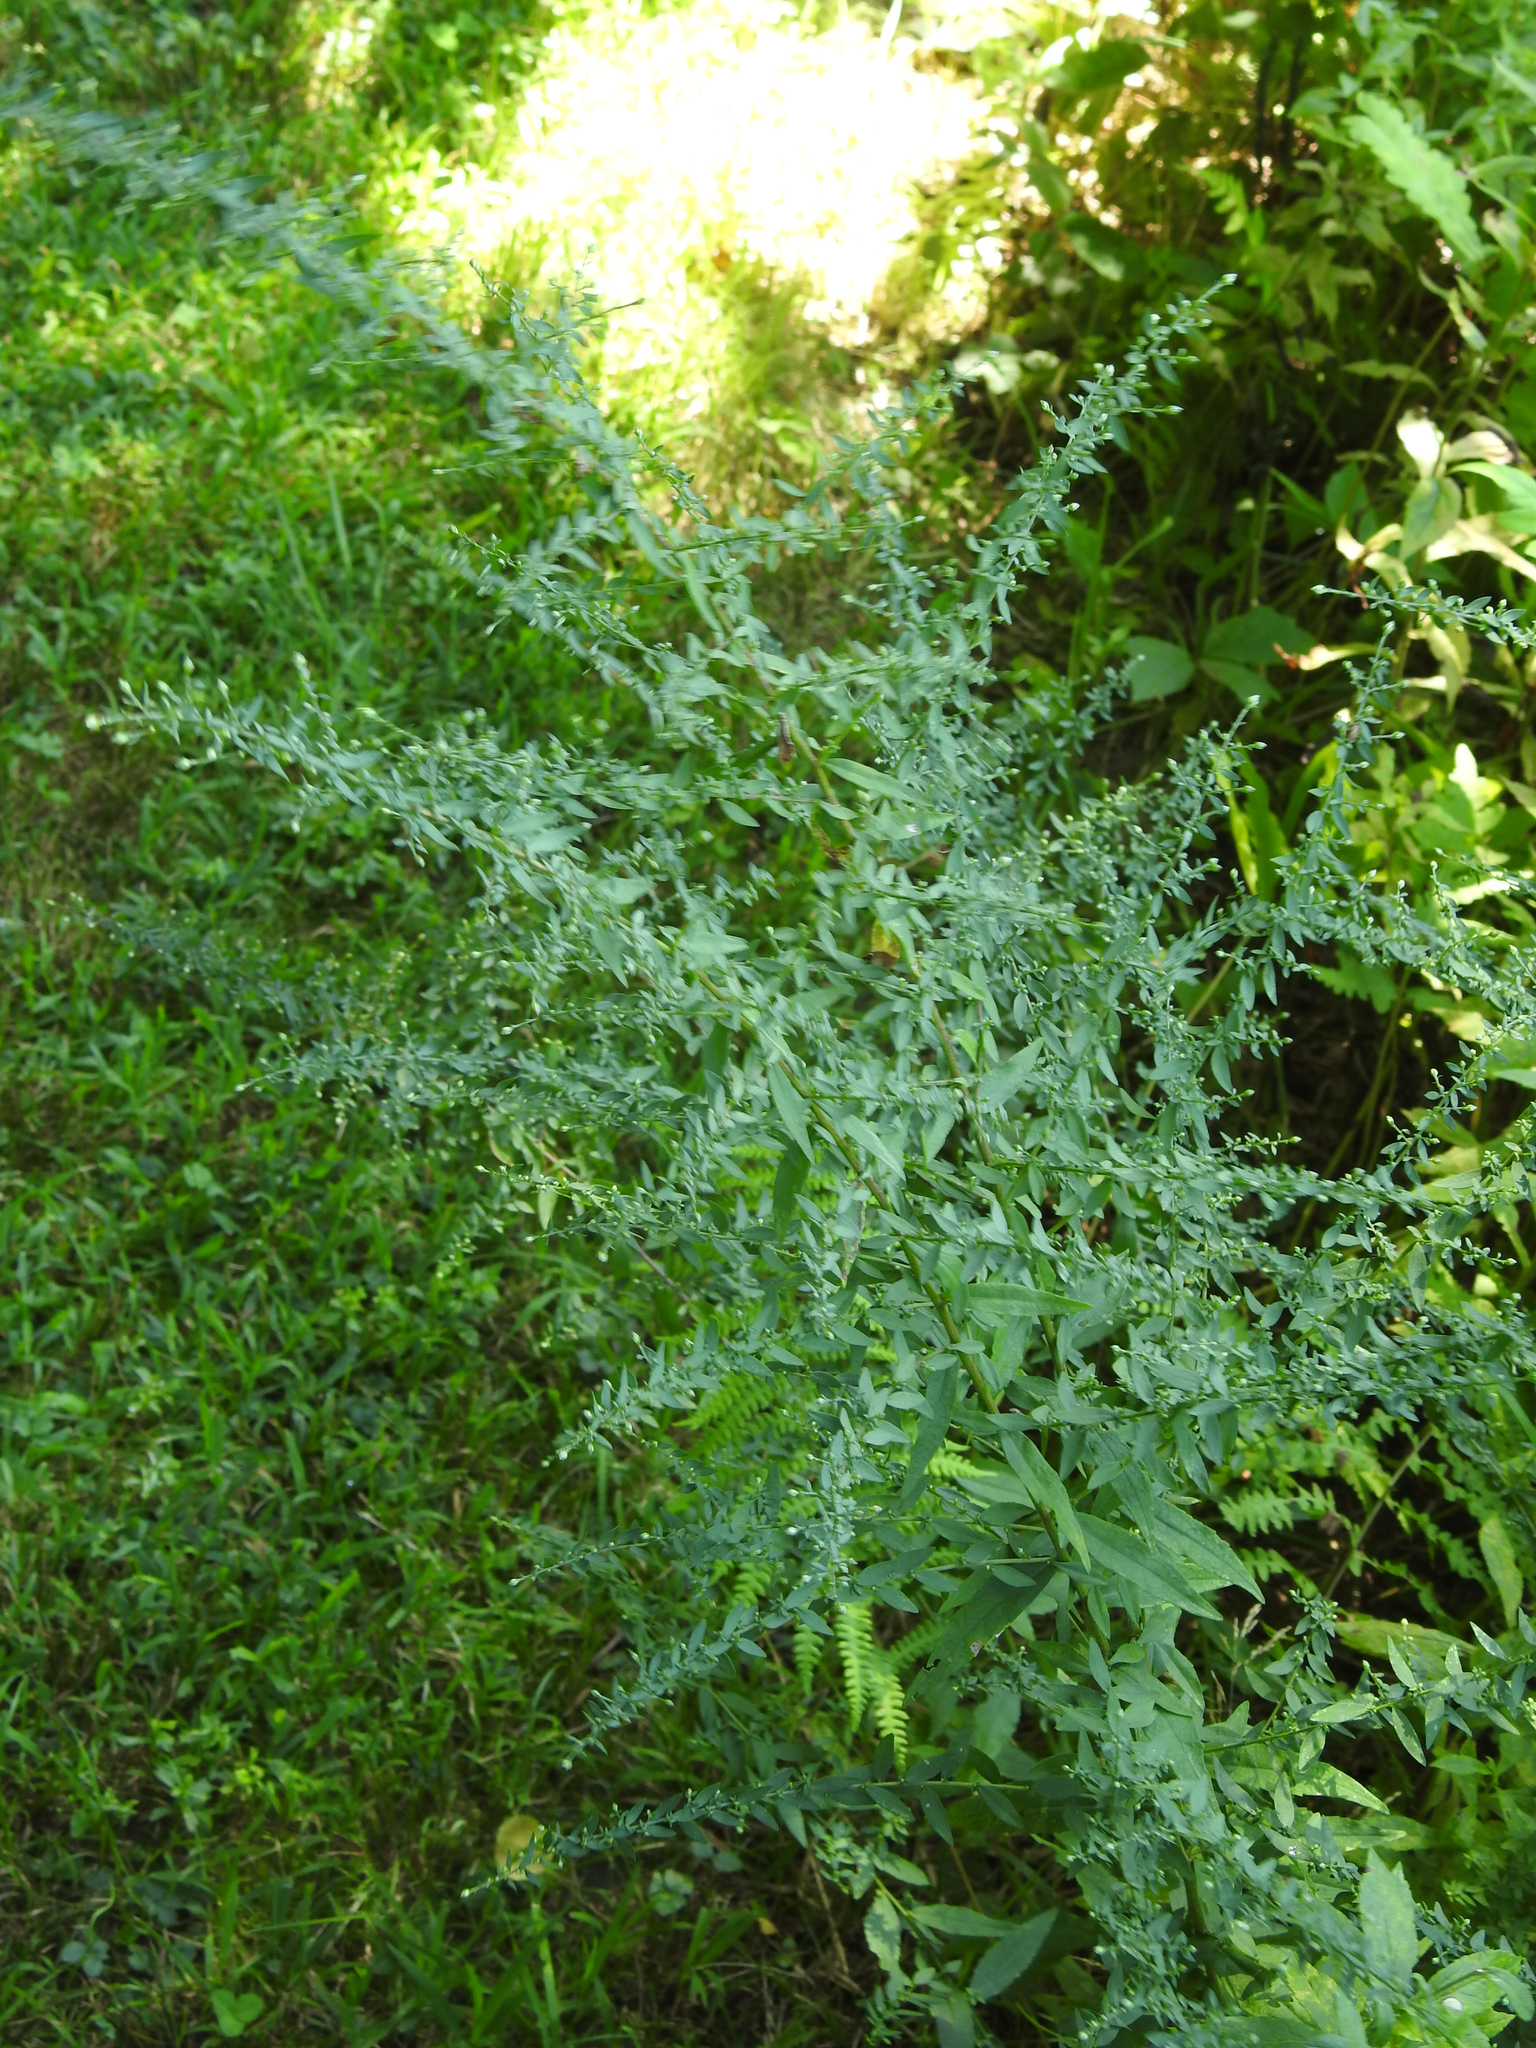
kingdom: Plantae
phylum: Tracheophyta
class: Magnoliopsida
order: Asterales
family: Asteraceae
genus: Artemisia
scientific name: Artemisia vulgaris
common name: Mugwort
